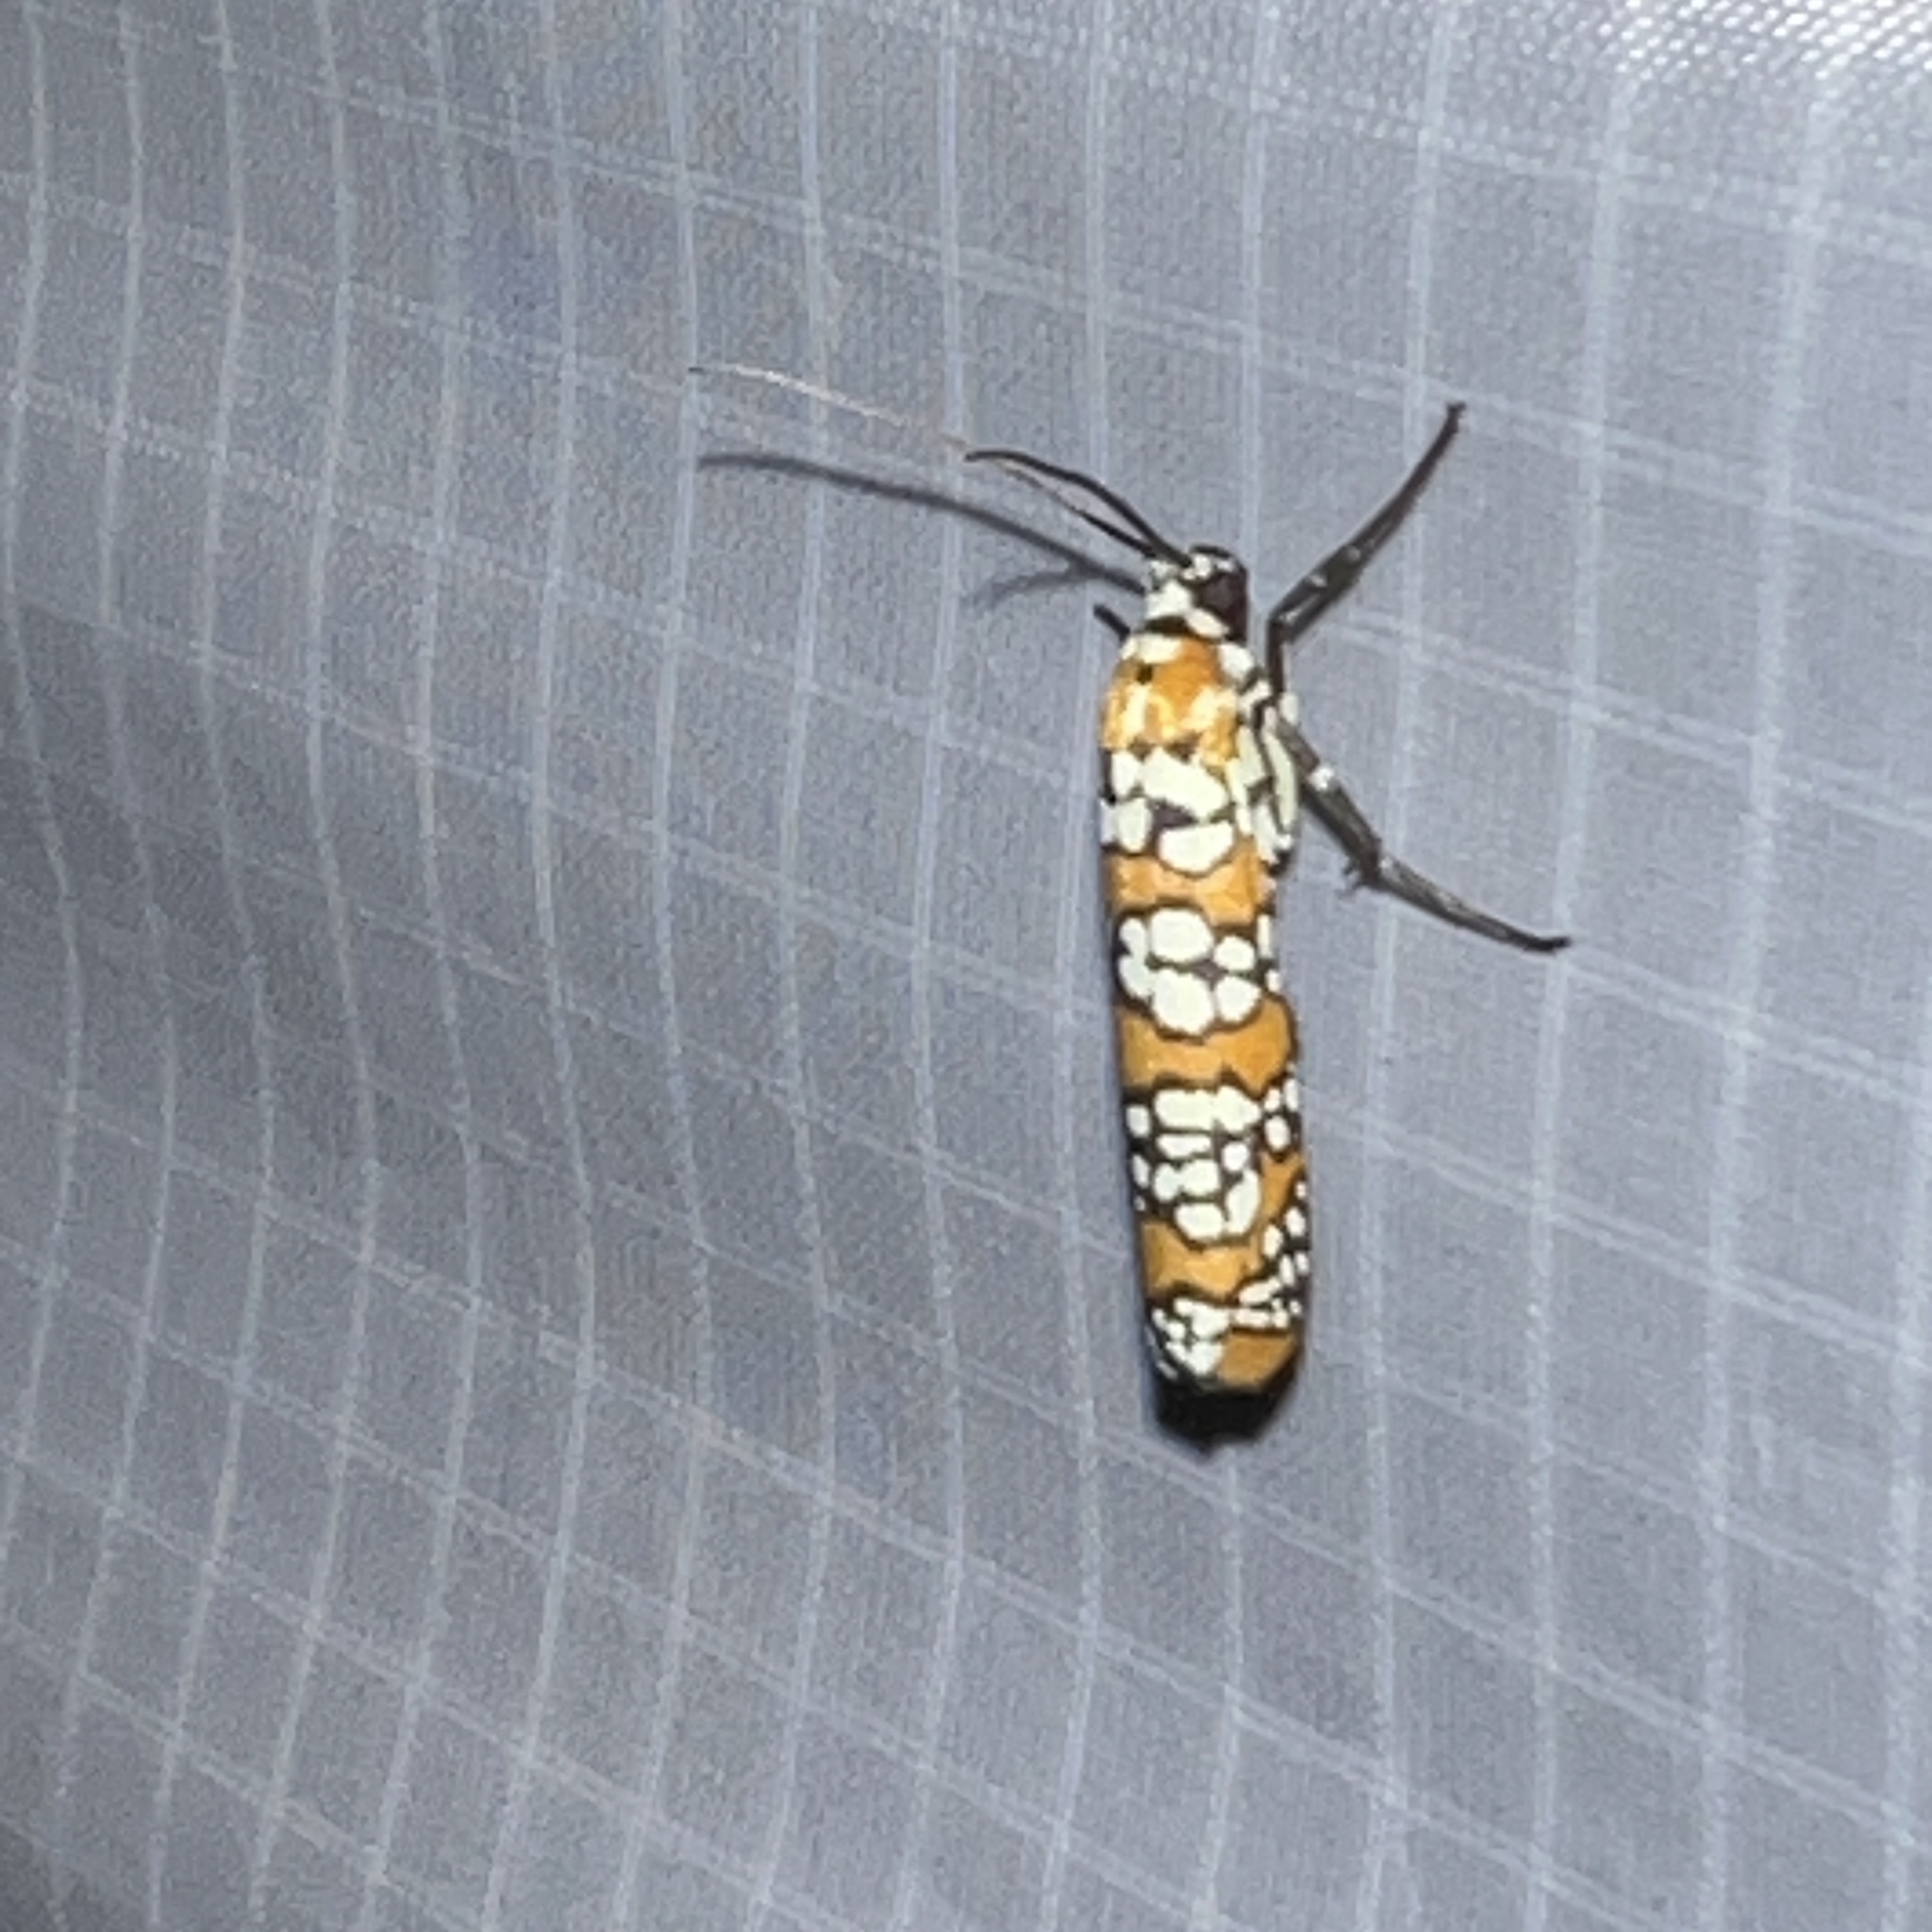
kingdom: Animalia
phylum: Arthropoda
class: Insecta
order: Lepidoptera
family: Attevidae
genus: Atteva
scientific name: Atteva punctella
